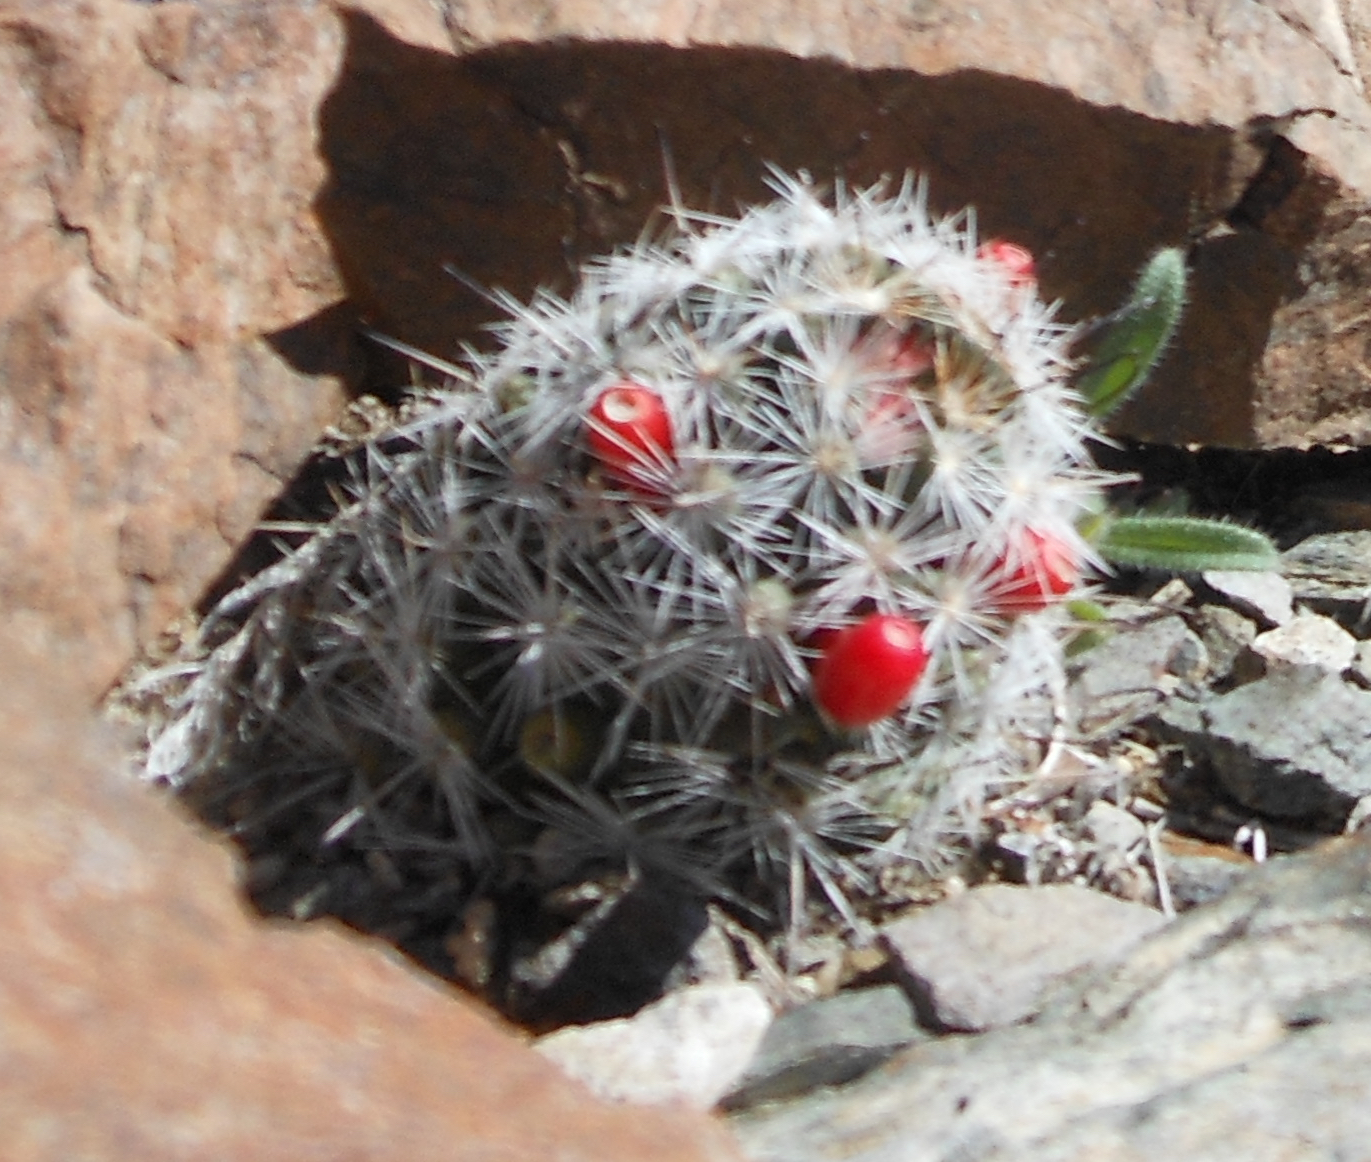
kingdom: Plantae
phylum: Tracheophyta
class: Magnoliopsida
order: Caryophyllales
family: Cactaceae
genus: Cochemiea
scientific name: Cochemiea tetrancistra
